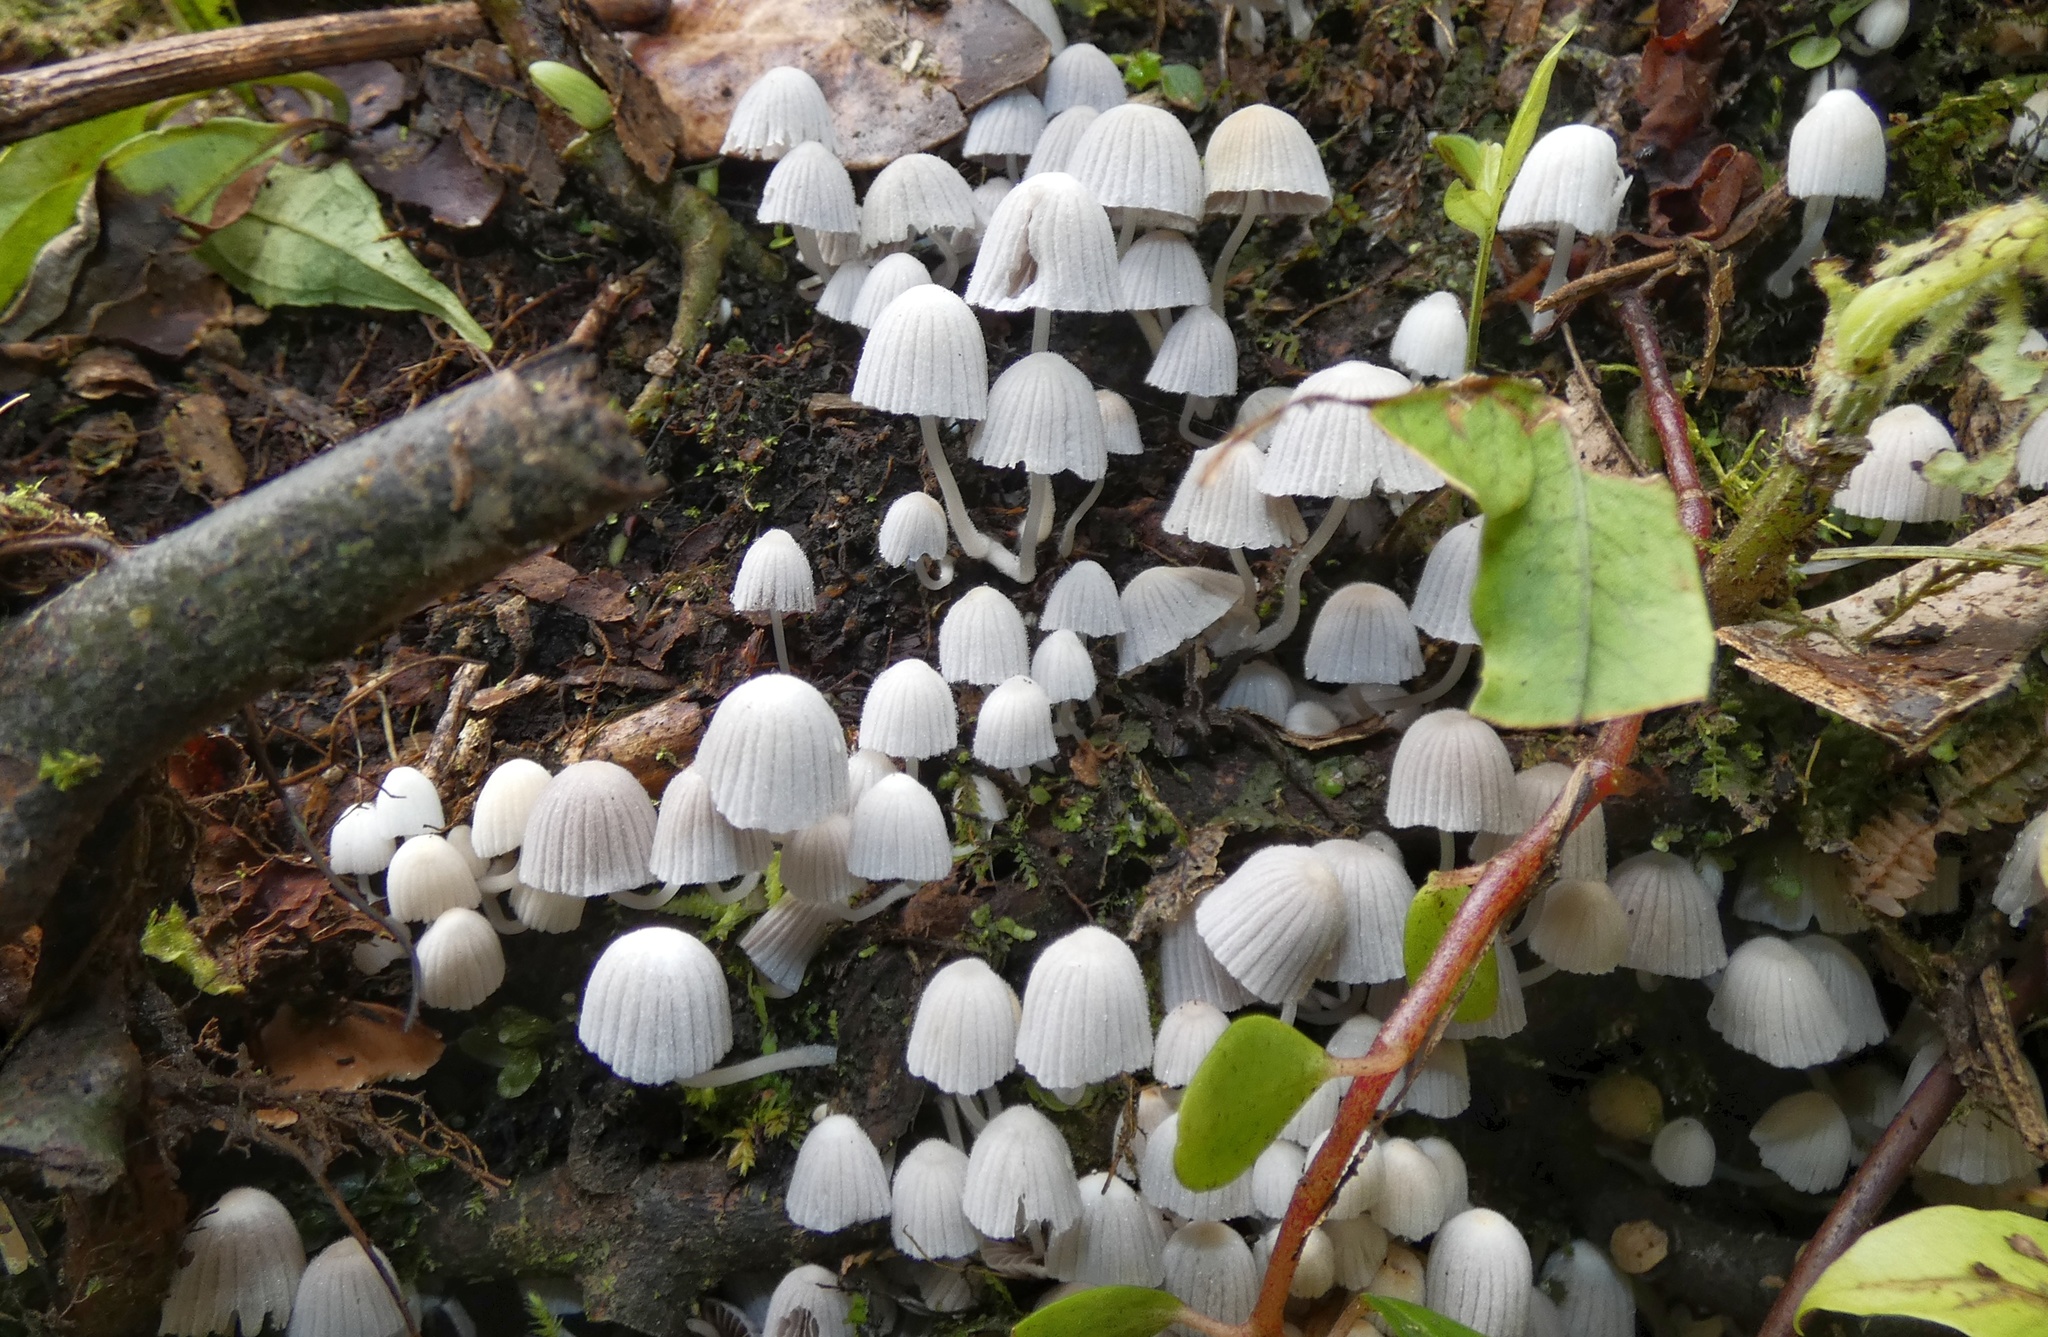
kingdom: Fungi
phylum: Basidiomycota
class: Agaricomycetes
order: Agaricales
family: Psathyrellaceae
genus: Coprinellus
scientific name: Coprinellus disseminatus
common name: Fairies' bonnets
